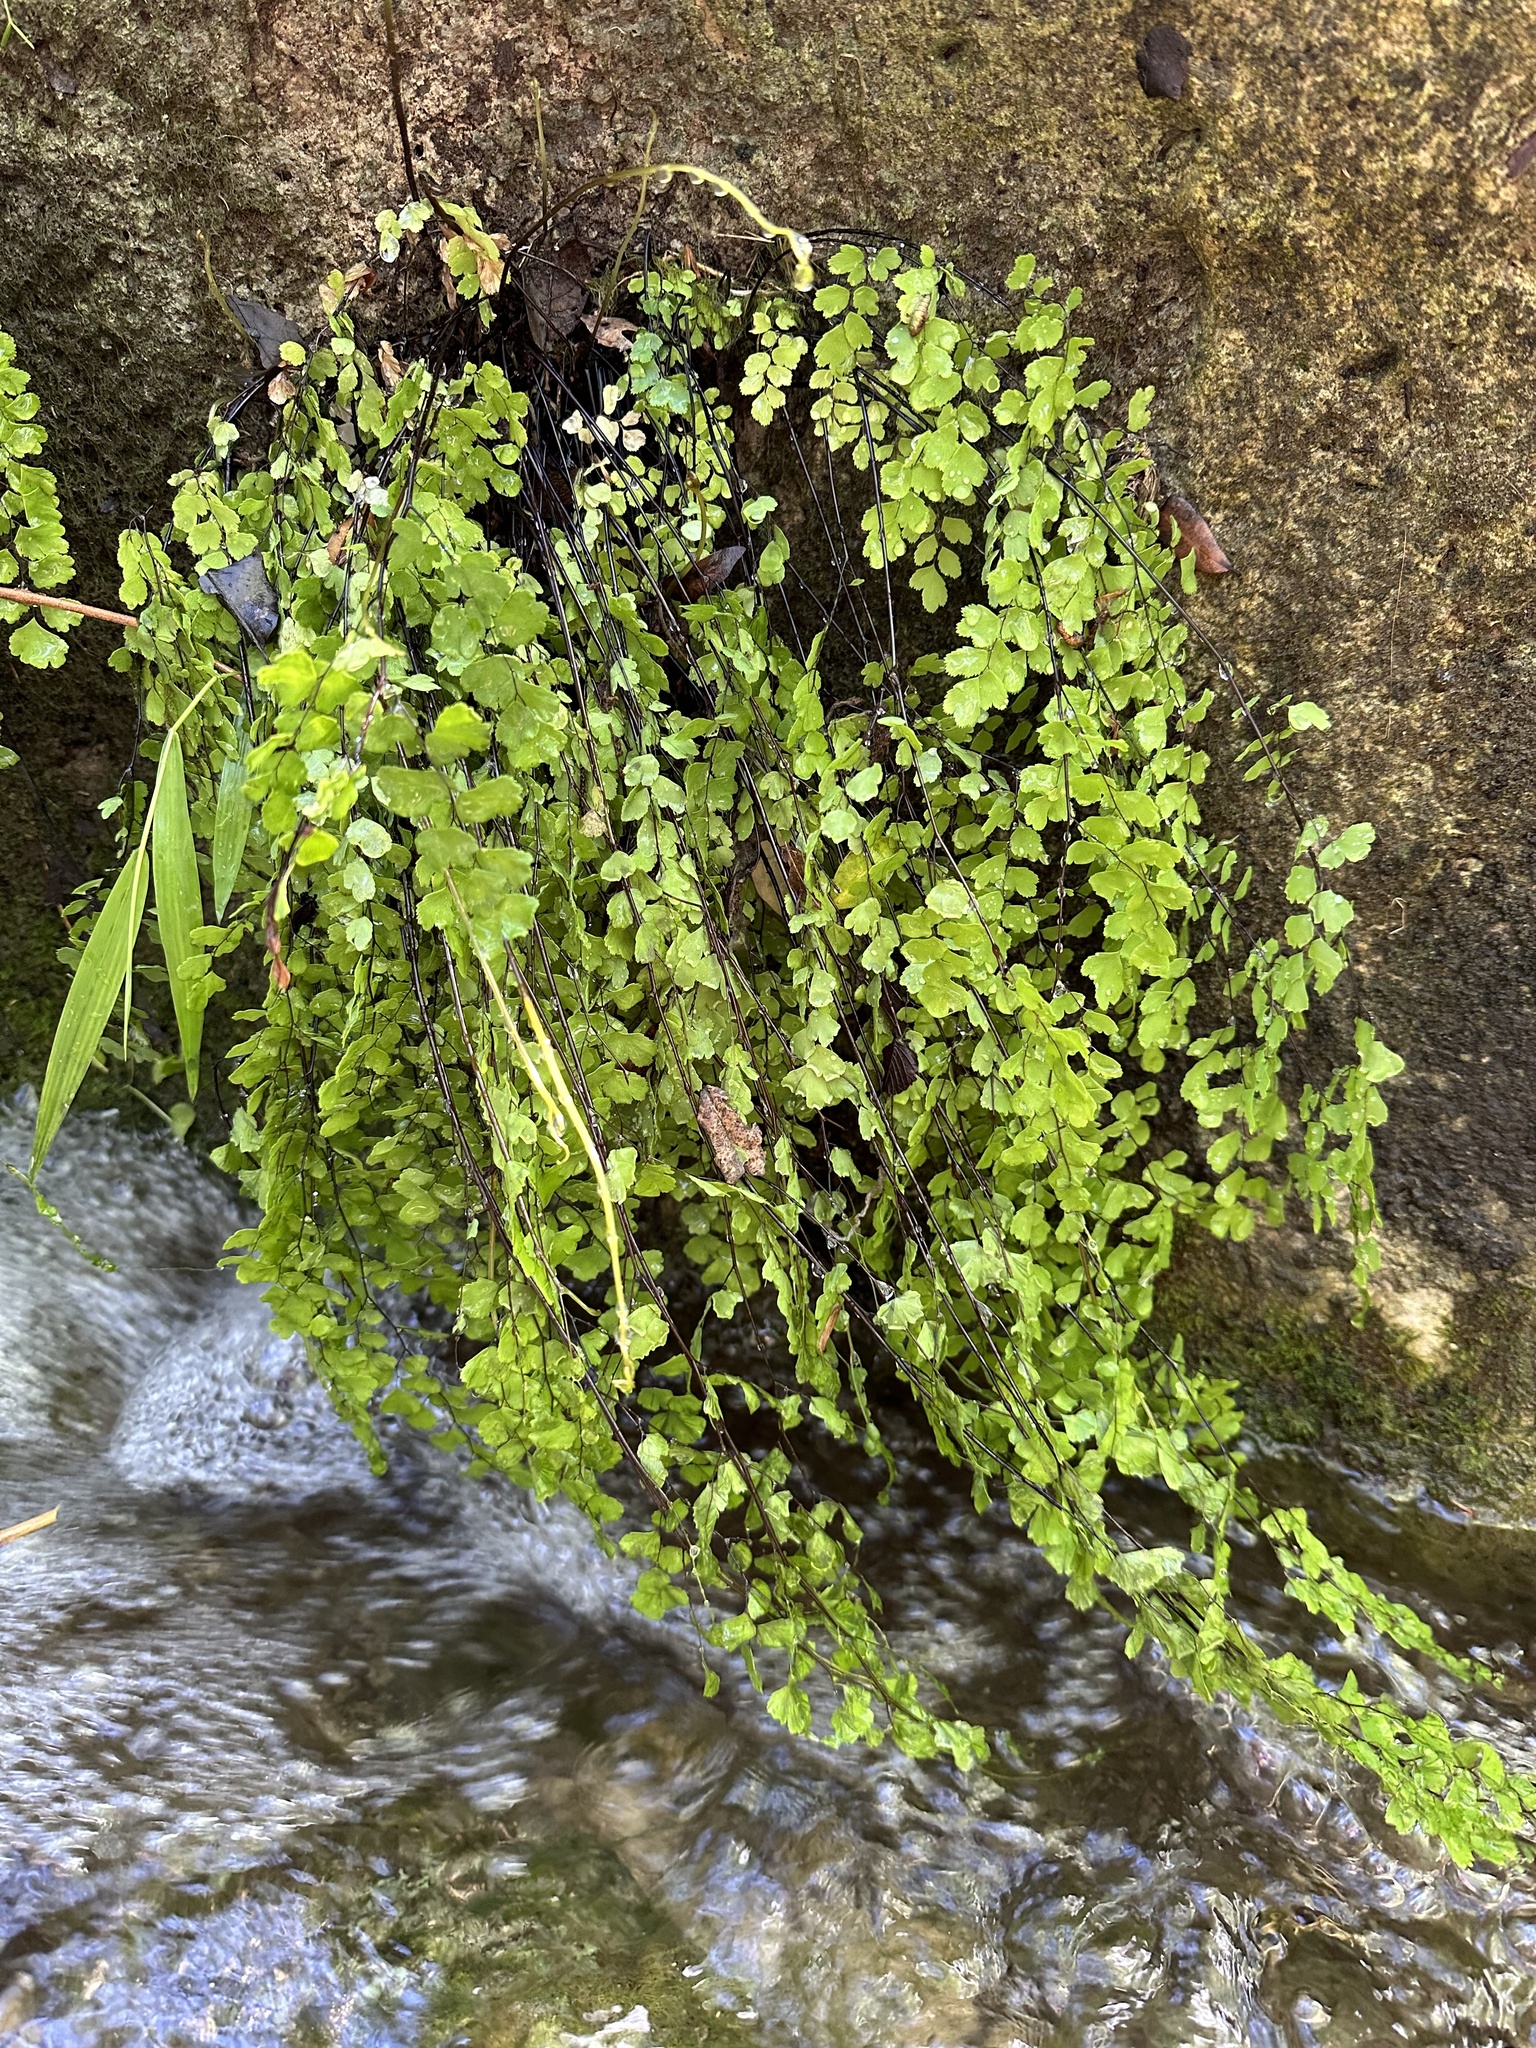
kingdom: Plantae
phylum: Tracheophyta
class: Polypodiopsida
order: Polypodiales
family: Pteridaceae
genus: Adiantum
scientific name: Adiantum capillus-veneris
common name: Maidenhair fern
